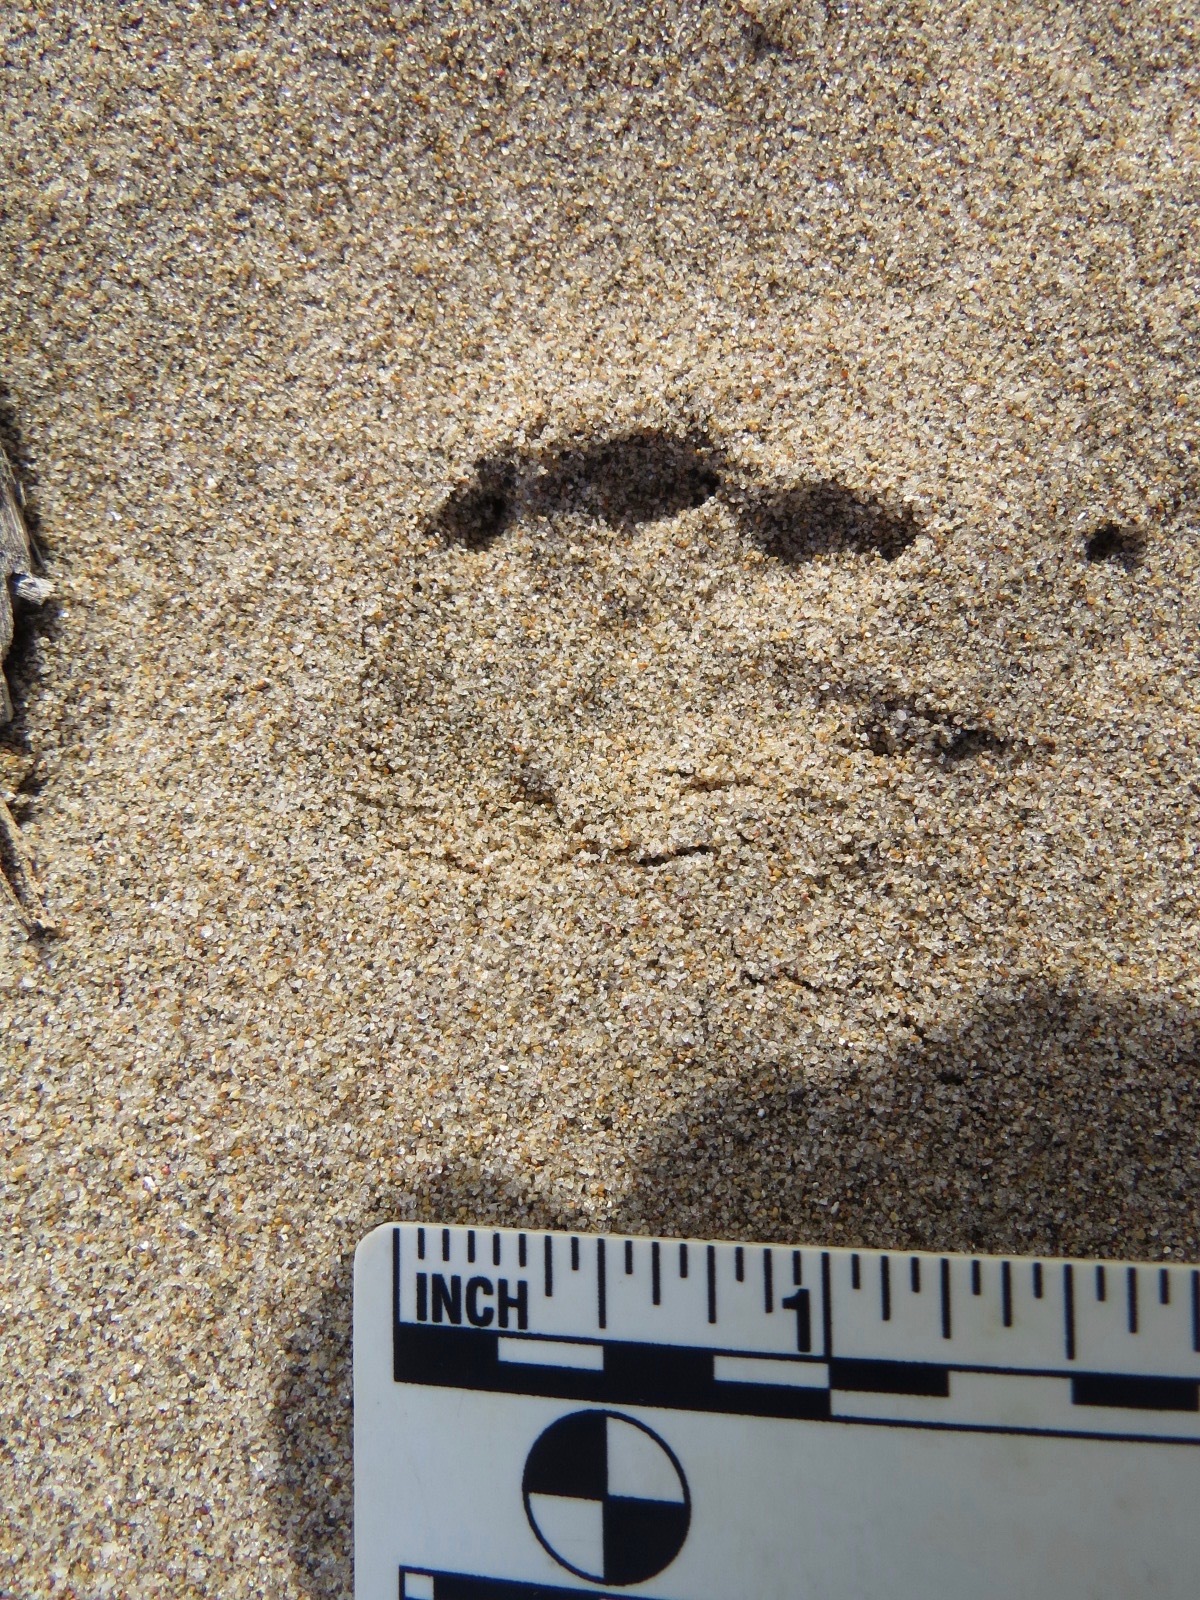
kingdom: Animalia
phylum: Chordata
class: Mammalia
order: Lagomorpha
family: Leporidae
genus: Sylvilagus
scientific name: Sylvilagus bachmani
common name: Brush rabbit
